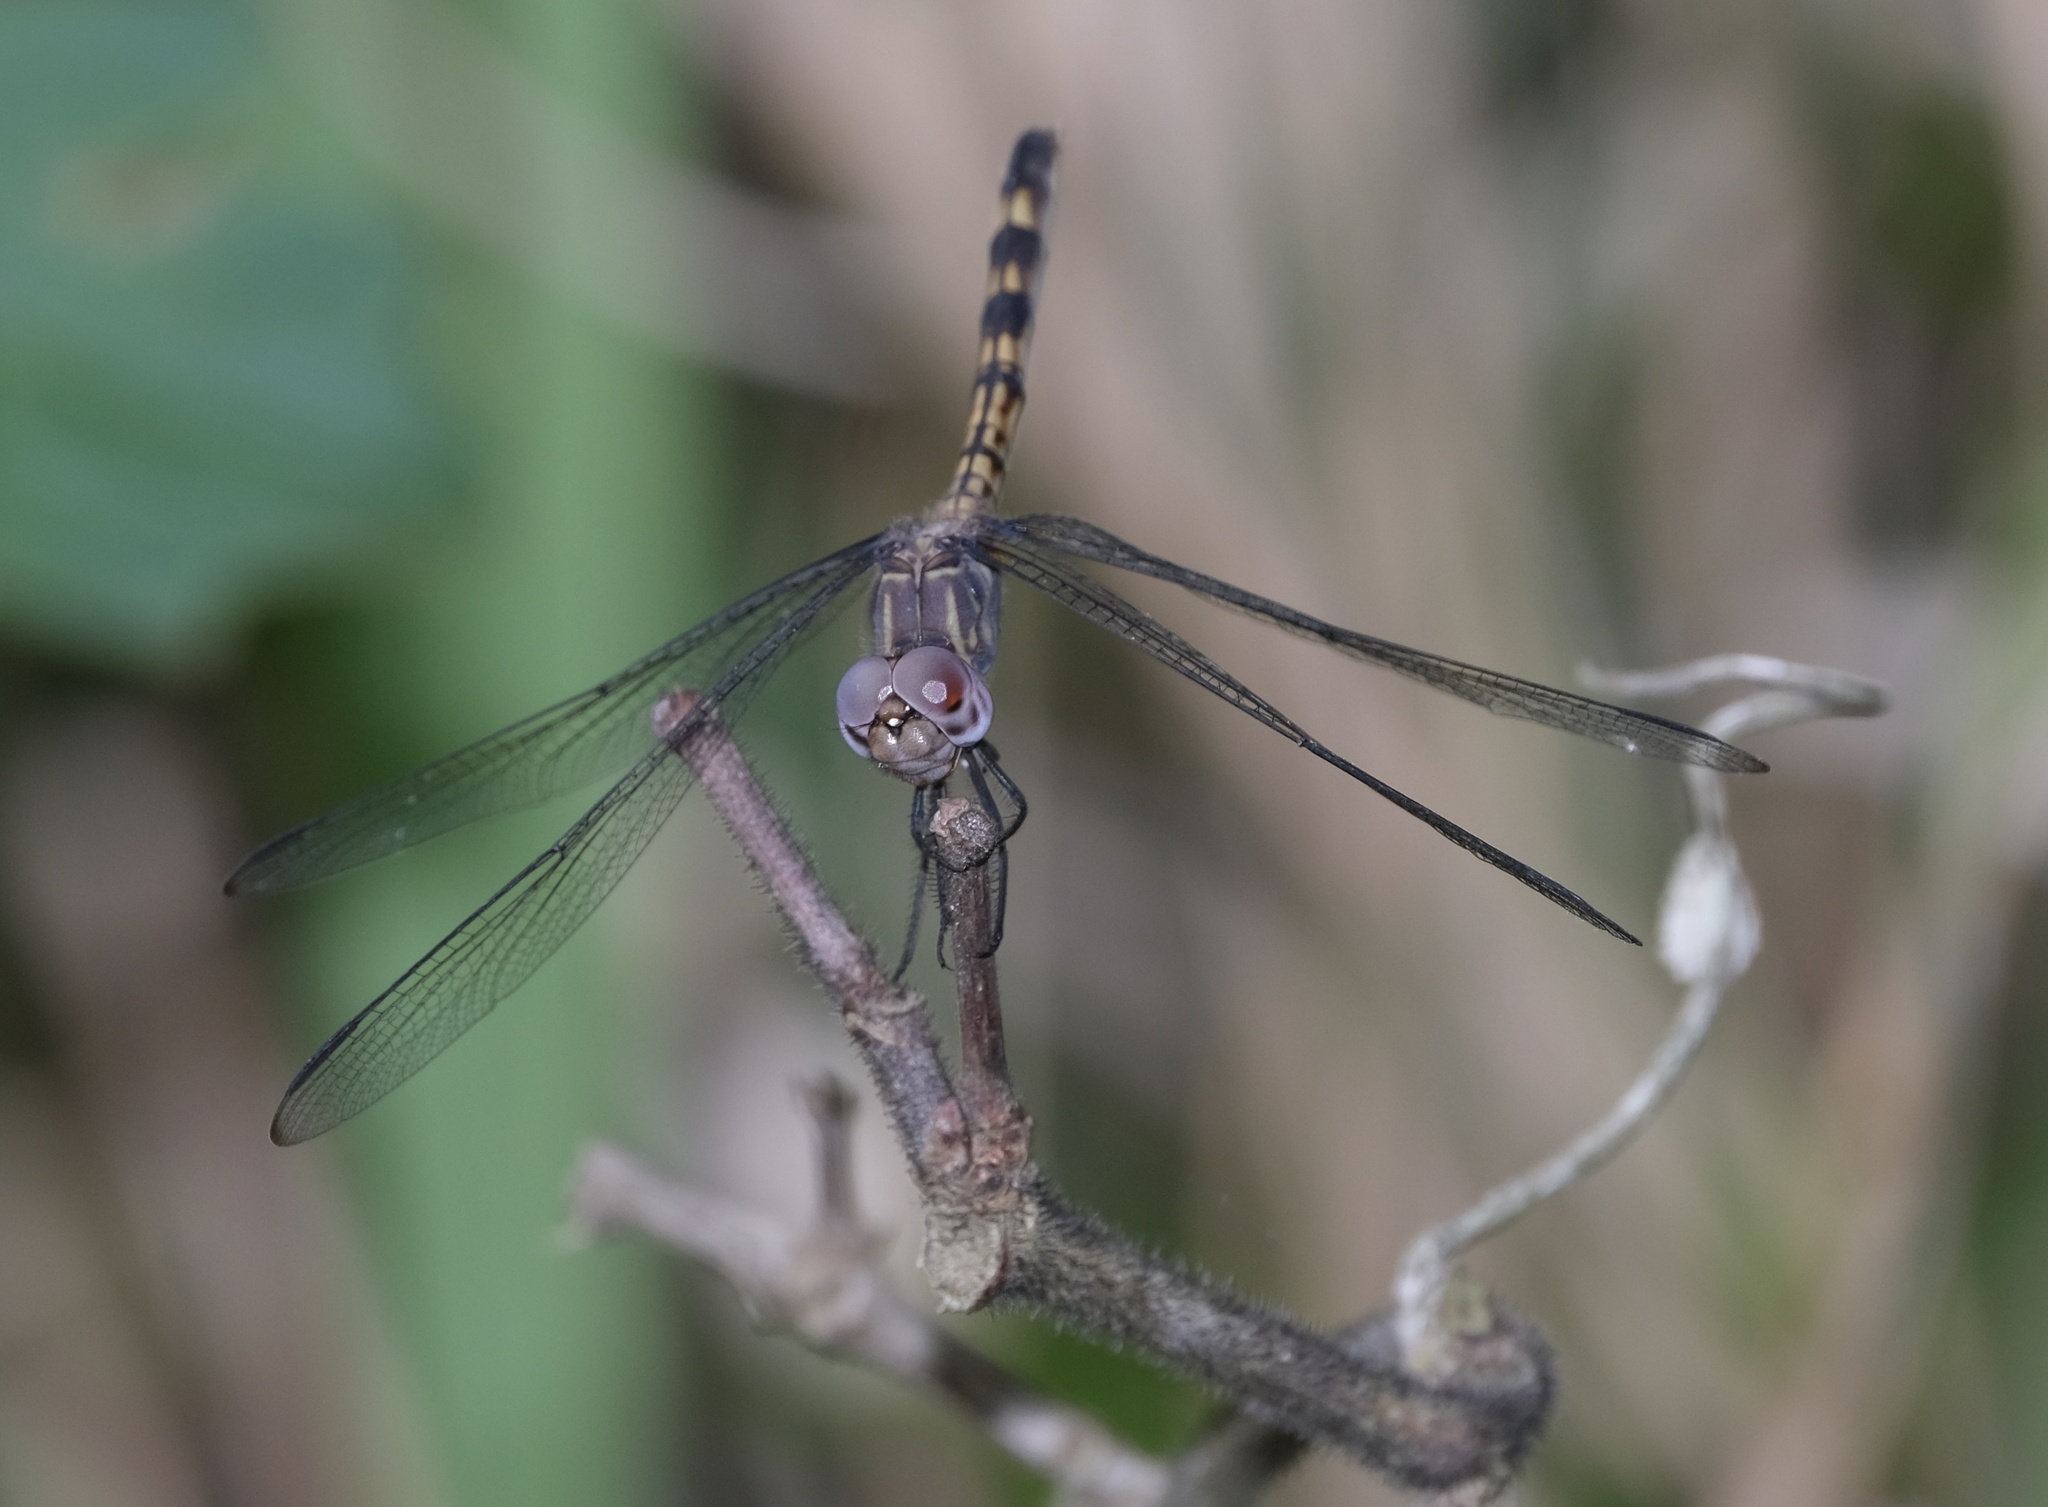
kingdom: Animalia
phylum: Arthropoda
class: Insecta
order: Odonata
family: Libellulidae
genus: Dythemis
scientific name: Dythemis nigrescens
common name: Black setwing
